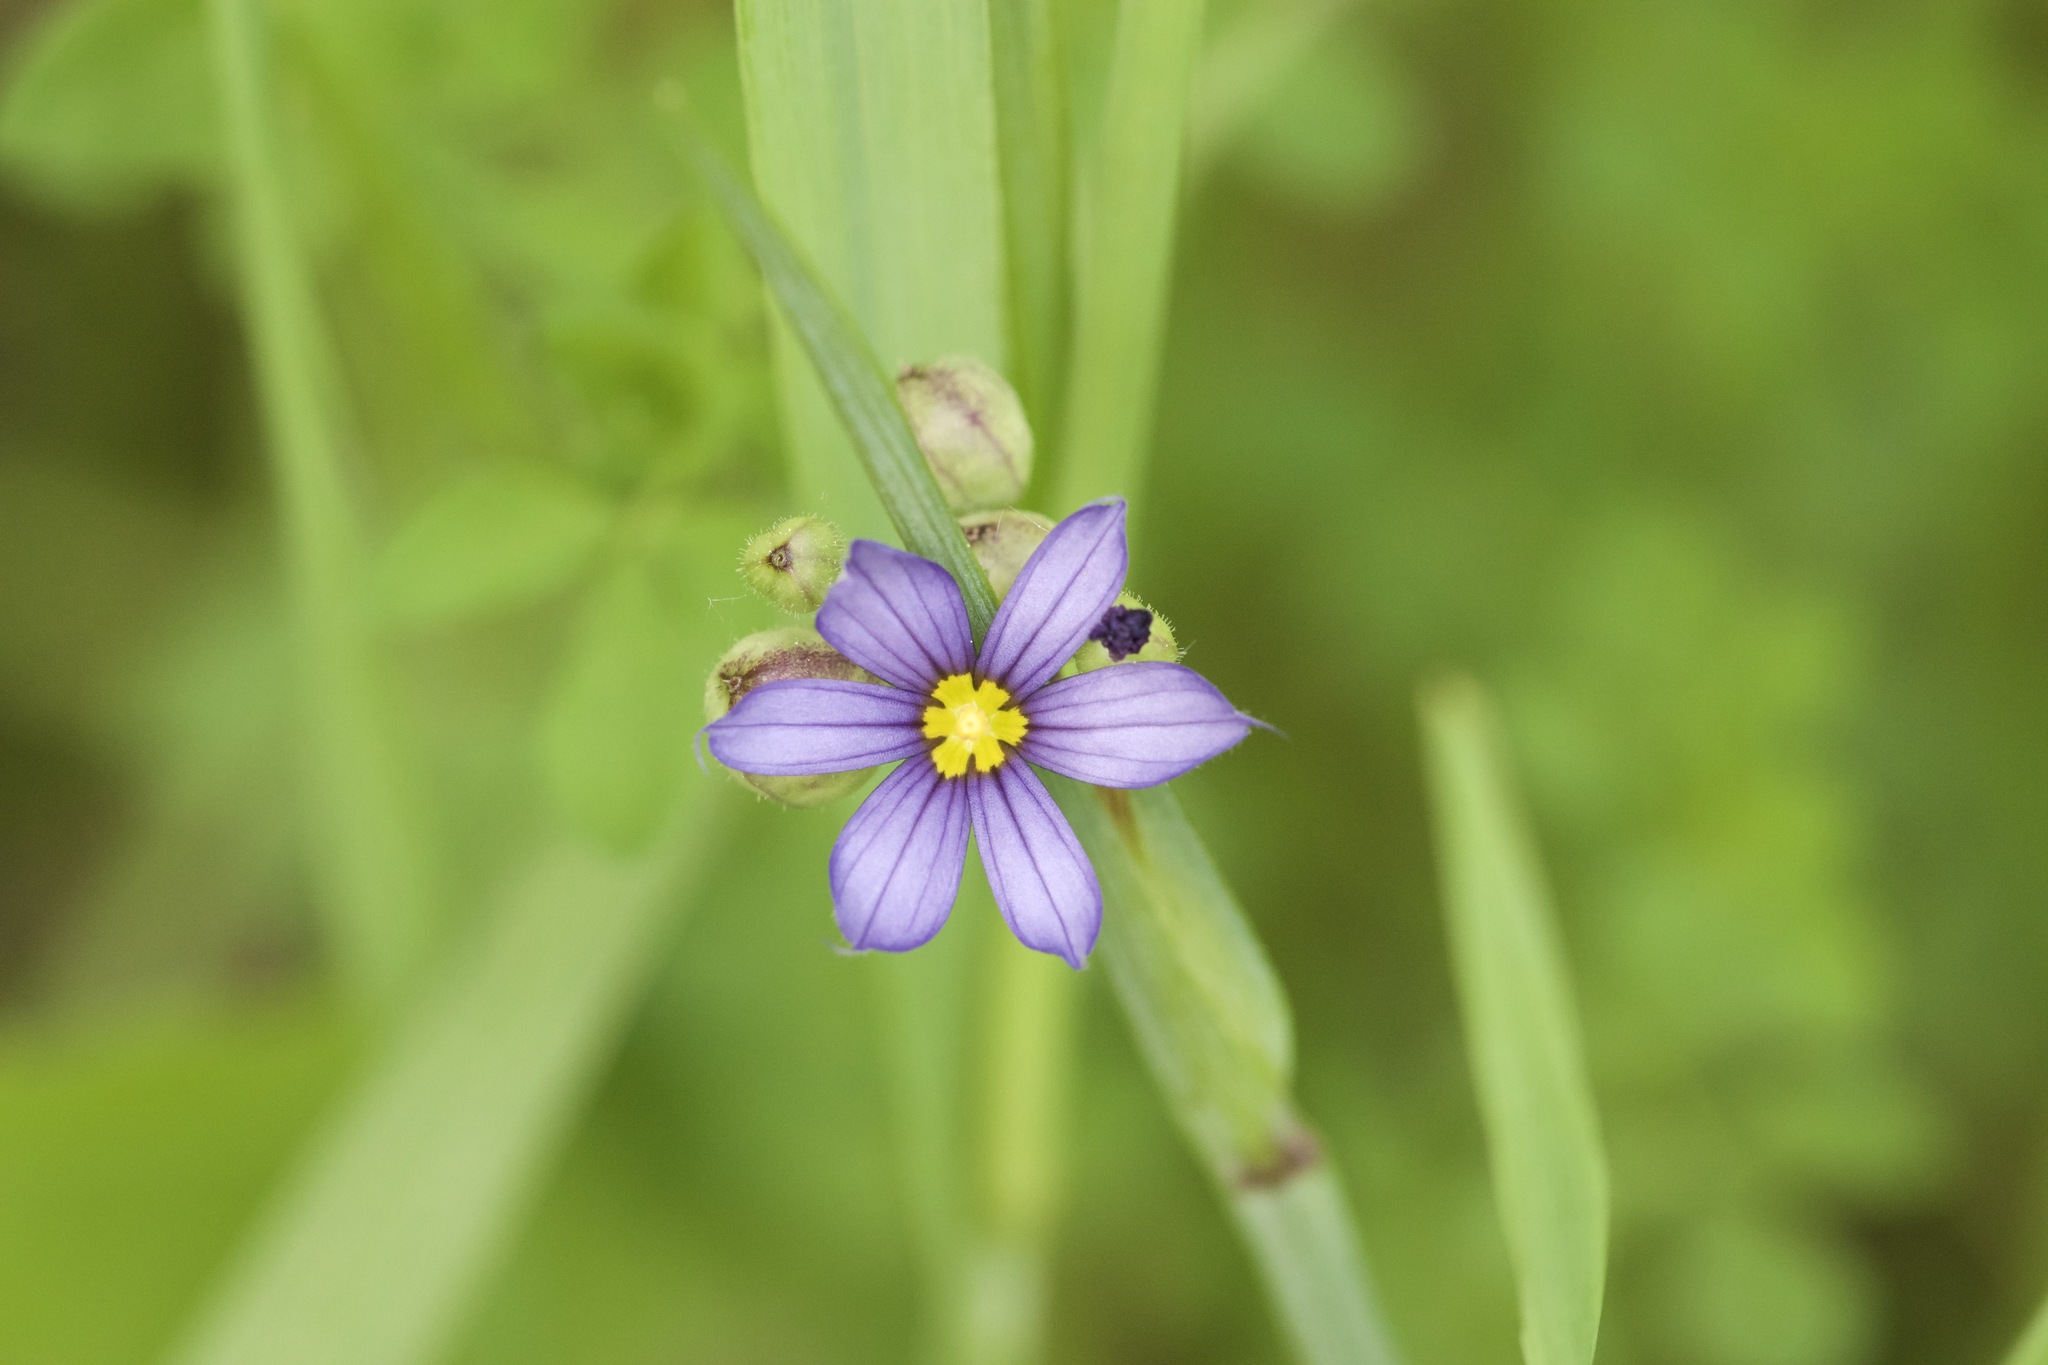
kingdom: Plantae
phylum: Tracheophyta
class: Liliopsida
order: Asparagales
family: Iridaceae
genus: Sisyrinchium
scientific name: Sisyrinchium montanum
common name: American blue-eyed-grass
